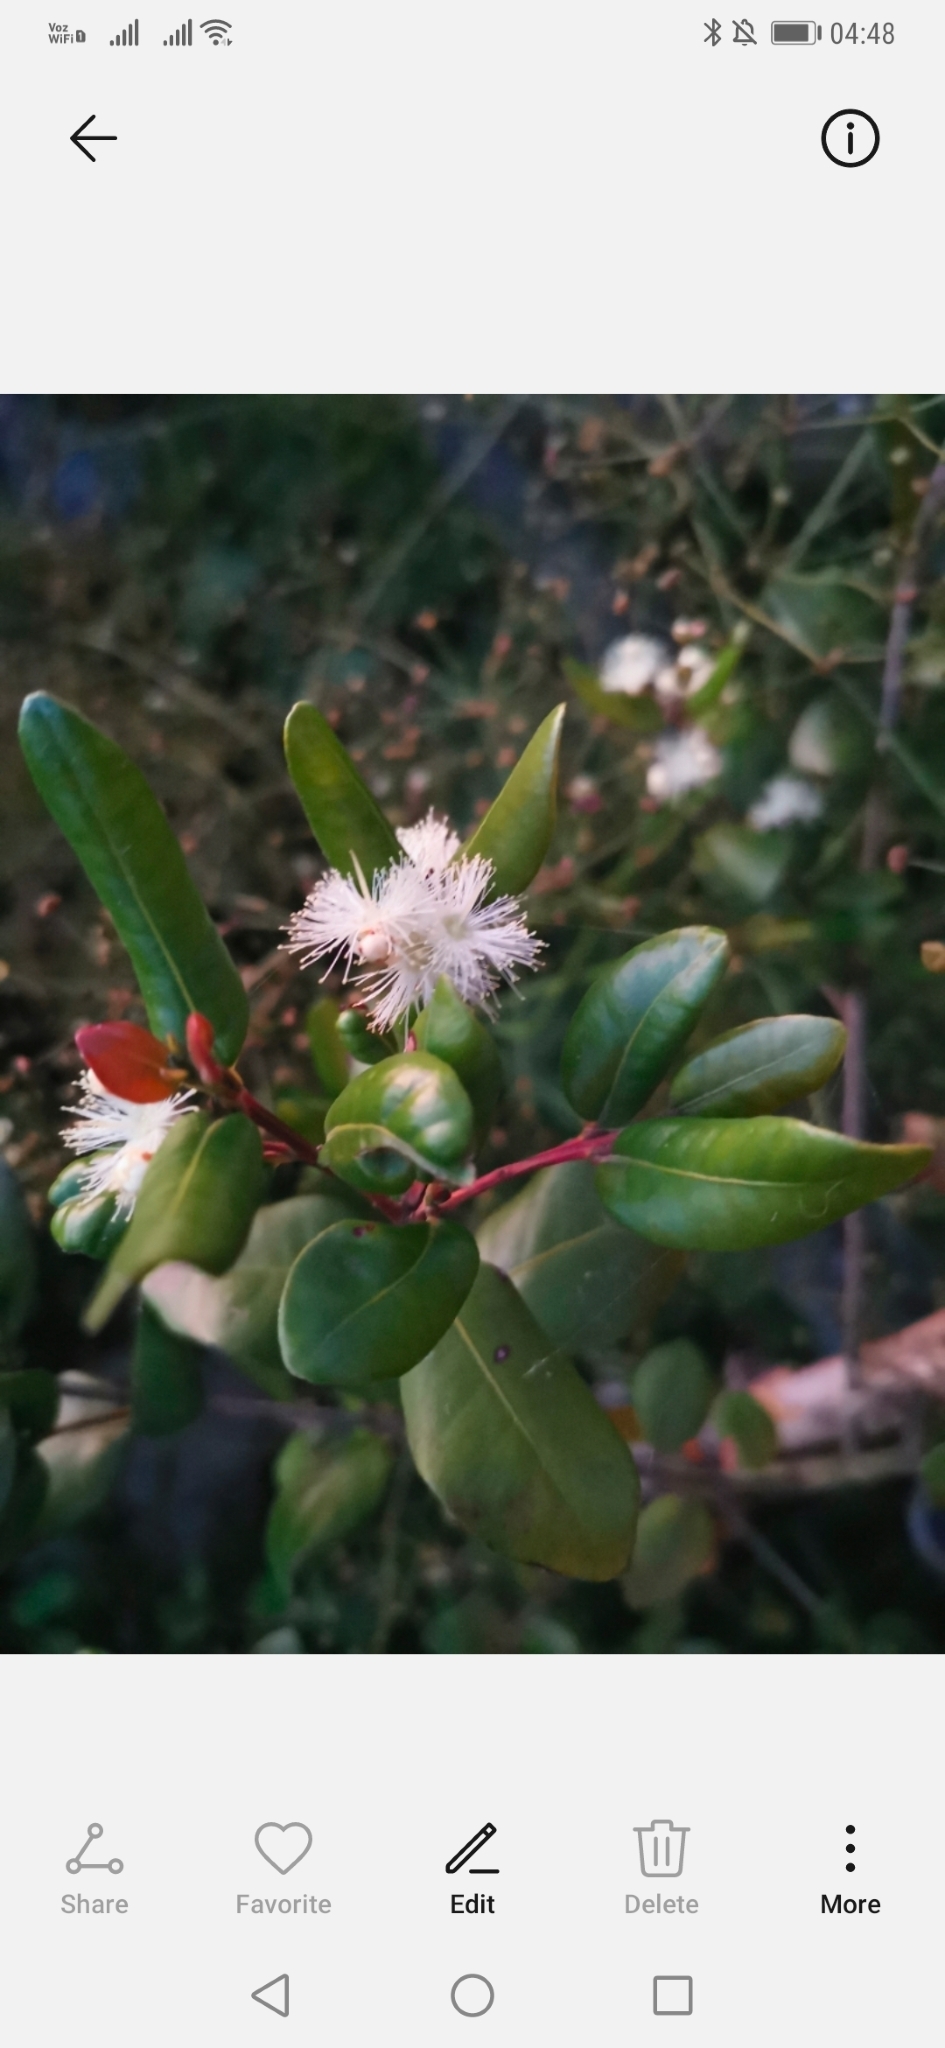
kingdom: Plantae
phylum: Tracheophyta
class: Magnoliopsida
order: Myrtales
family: Myrtaceae
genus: Blepharocalyx
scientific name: Blepharocalyx cruckshanksii
